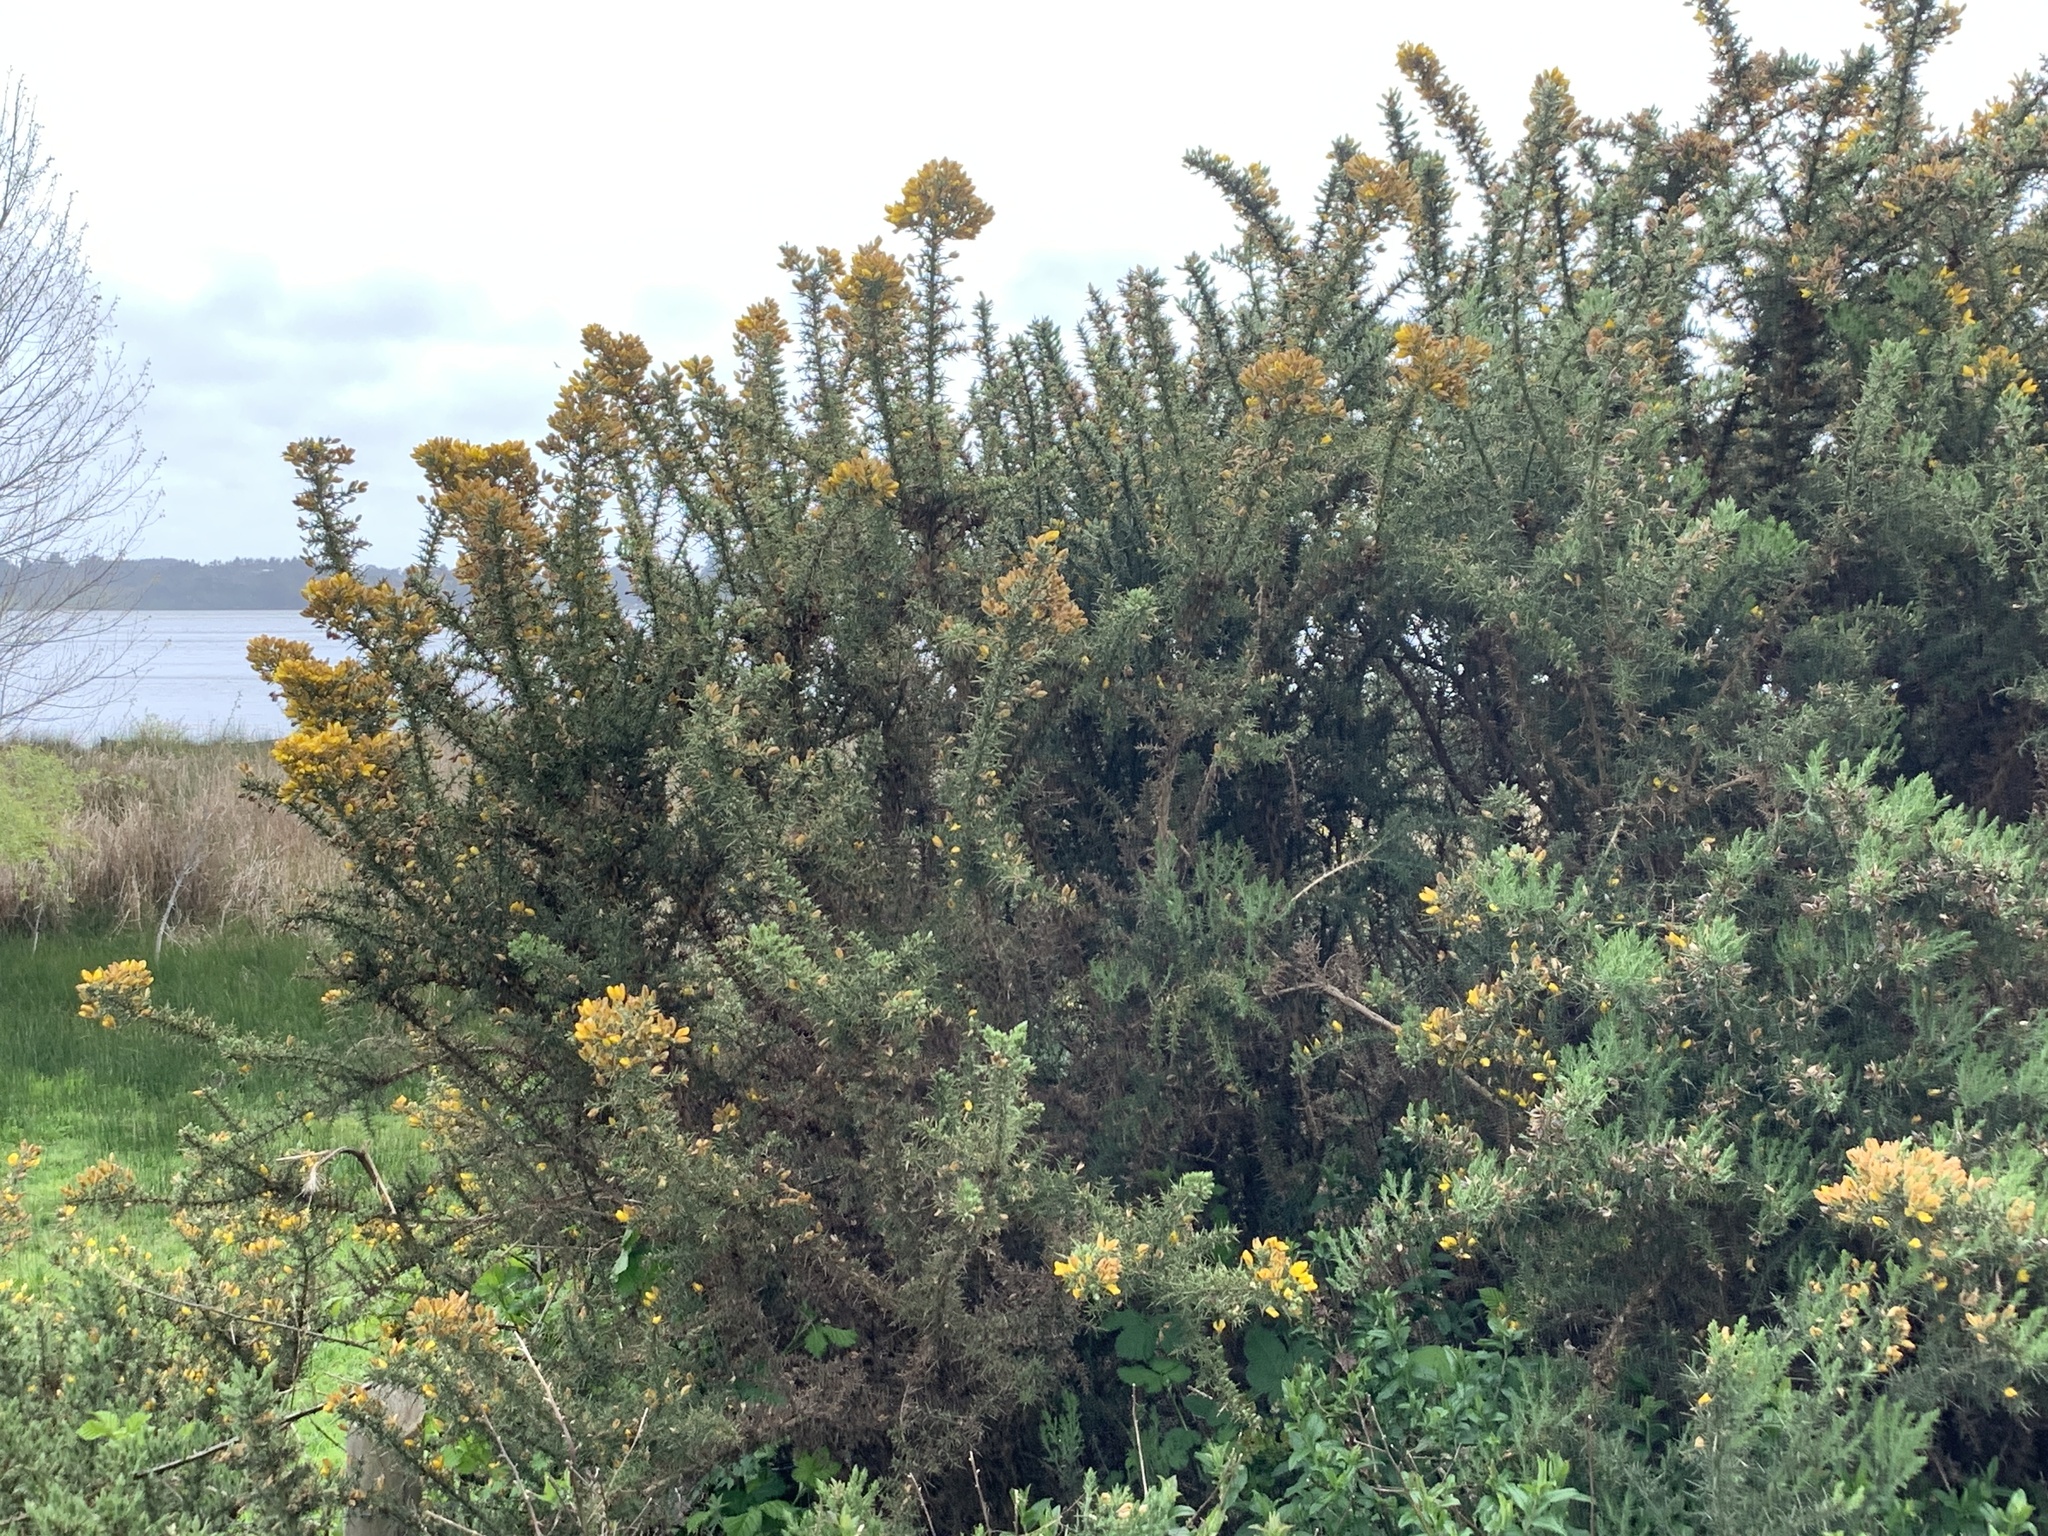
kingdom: Plantae
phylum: Tracheophyta
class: Magnoliopsida
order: Fabales
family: Fabaceae
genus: Ulex
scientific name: Ulex europaeus
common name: Common gorse
